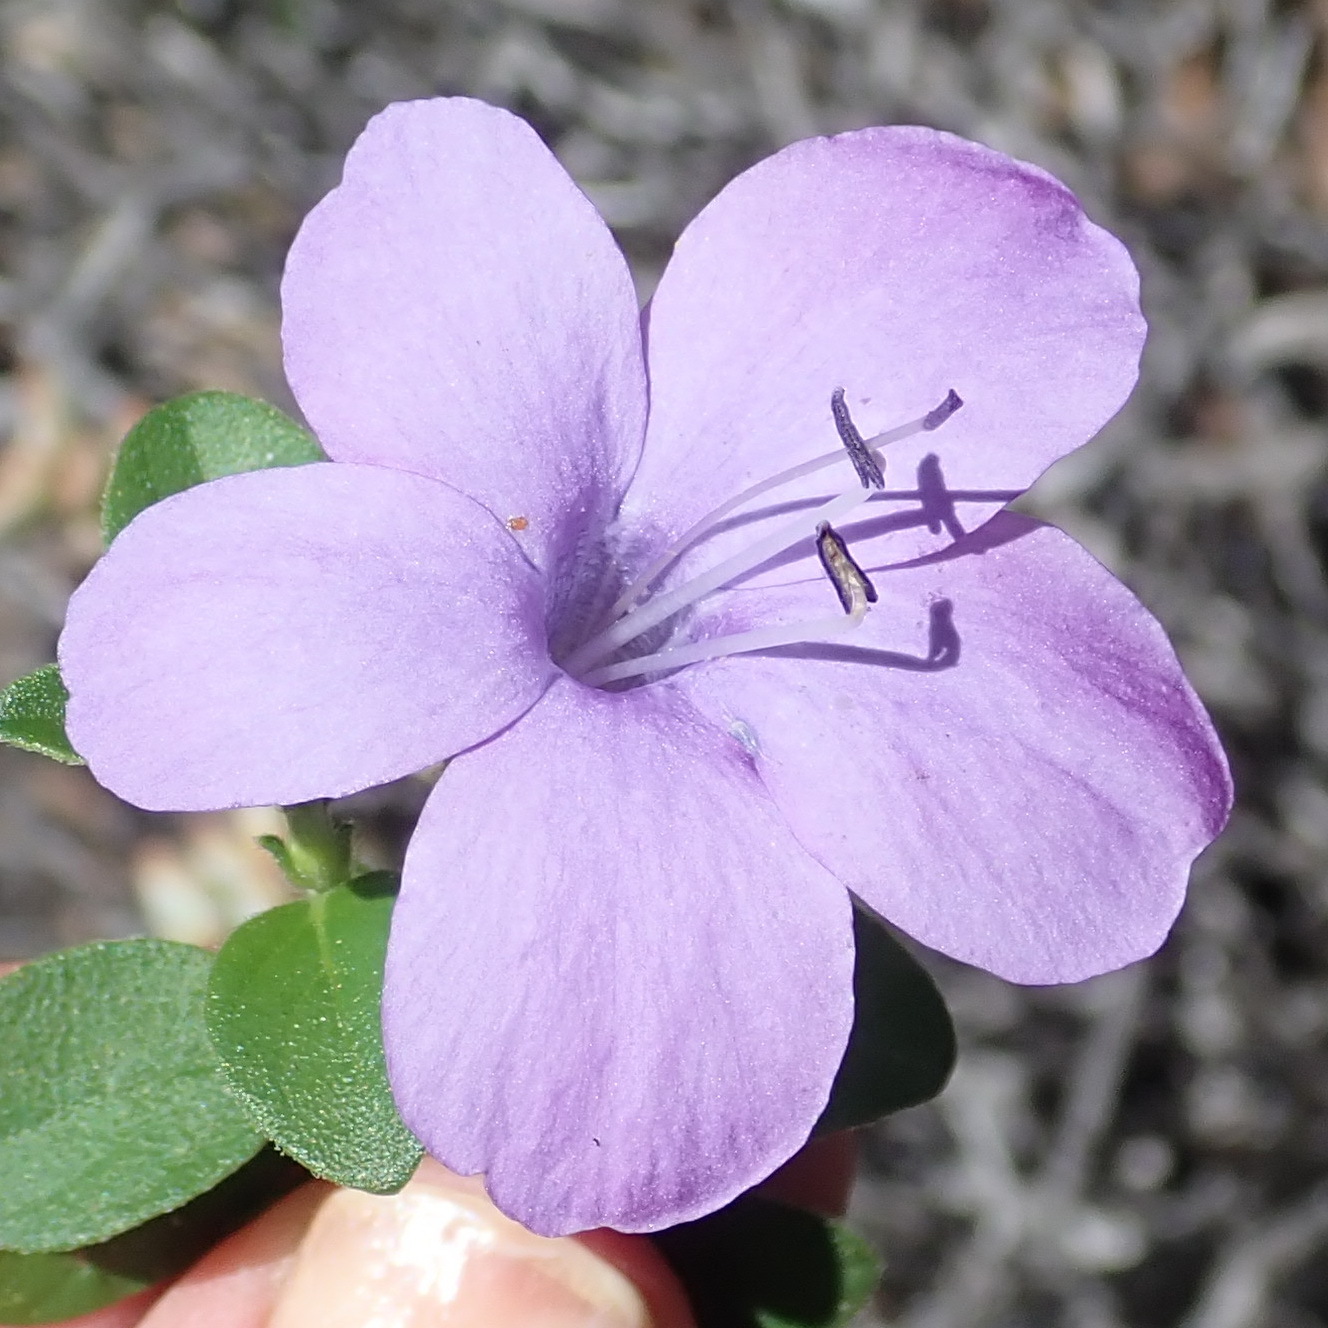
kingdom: Plantae
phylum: Tracheophyta
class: Magnoliopsida
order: Lamiales
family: Acanthaceae
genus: Barleria
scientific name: Barleria obtusa
